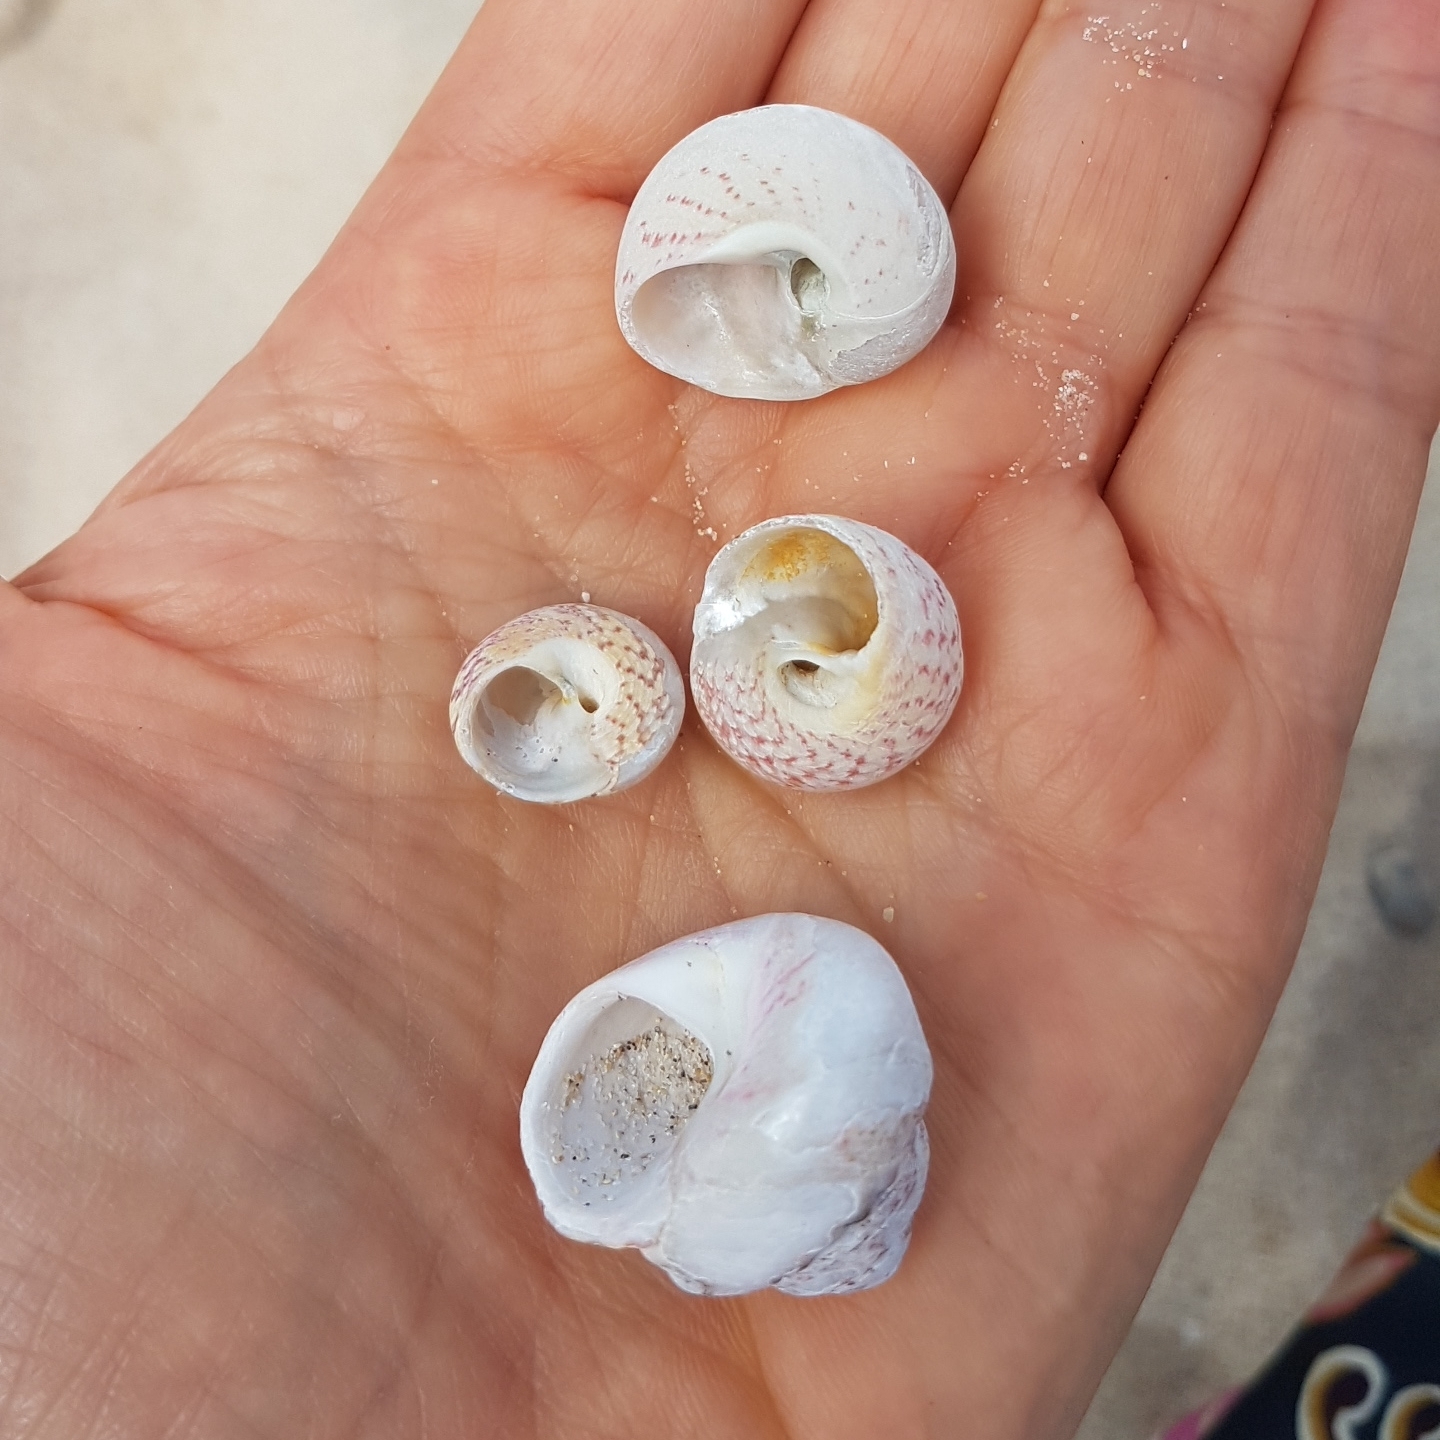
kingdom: Animalia
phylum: Mollusca
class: Gastropoda
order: Trochida
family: Trochidae
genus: Gibbula
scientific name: Gibbula magus
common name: Turban top shell
